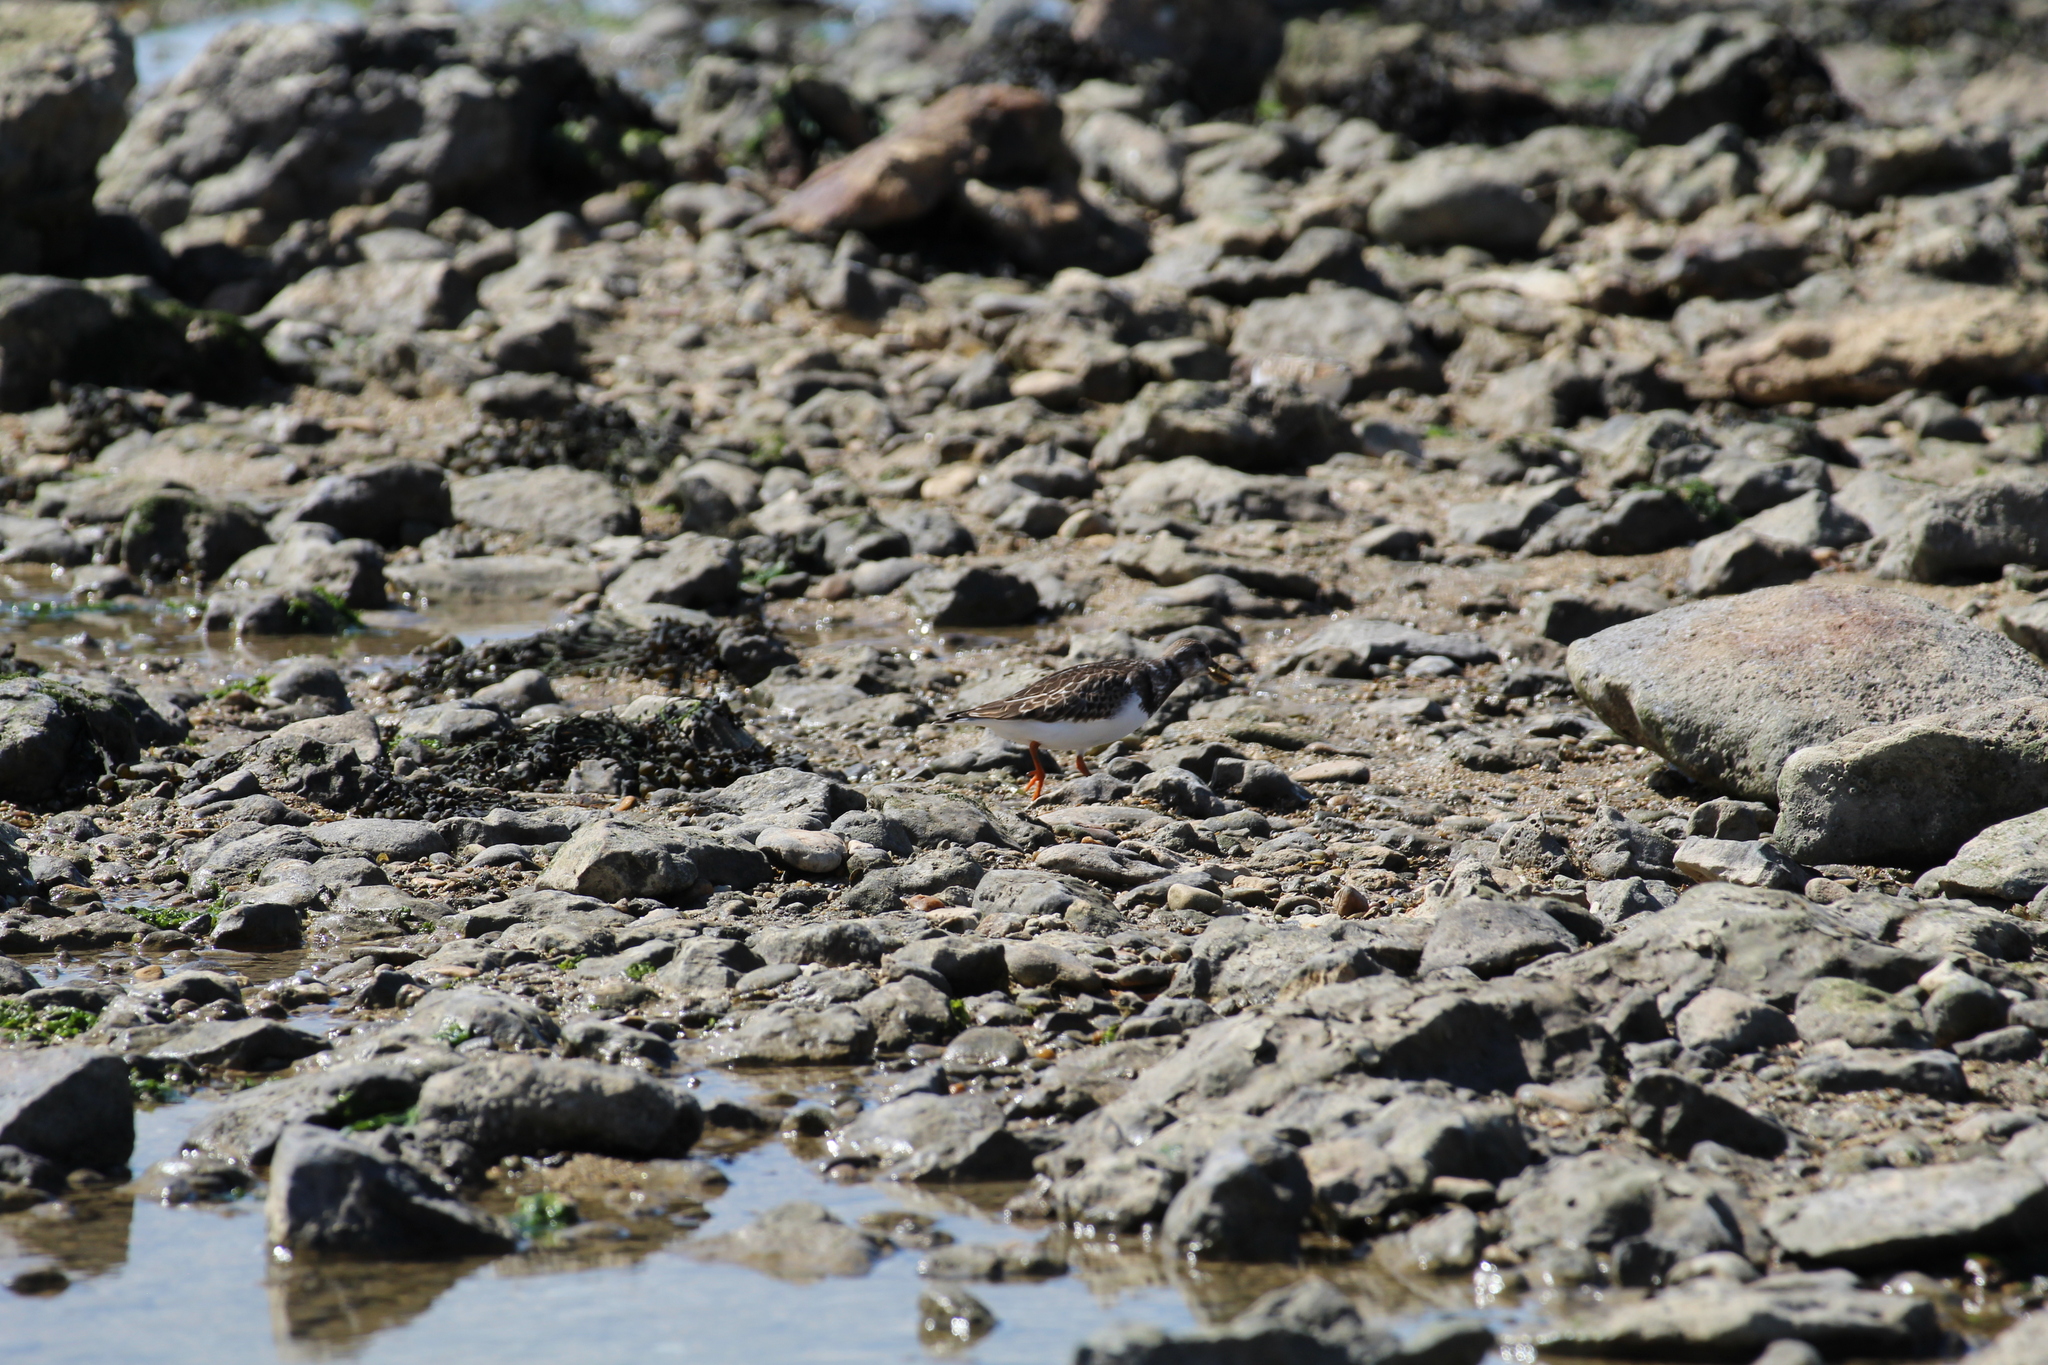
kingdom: Animalia
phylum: Chordata
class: Aves
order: Charadriiformes
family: Scolopacidae
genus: Arenaria
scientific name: Arenaria interpres
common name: Ruddy turnstone
